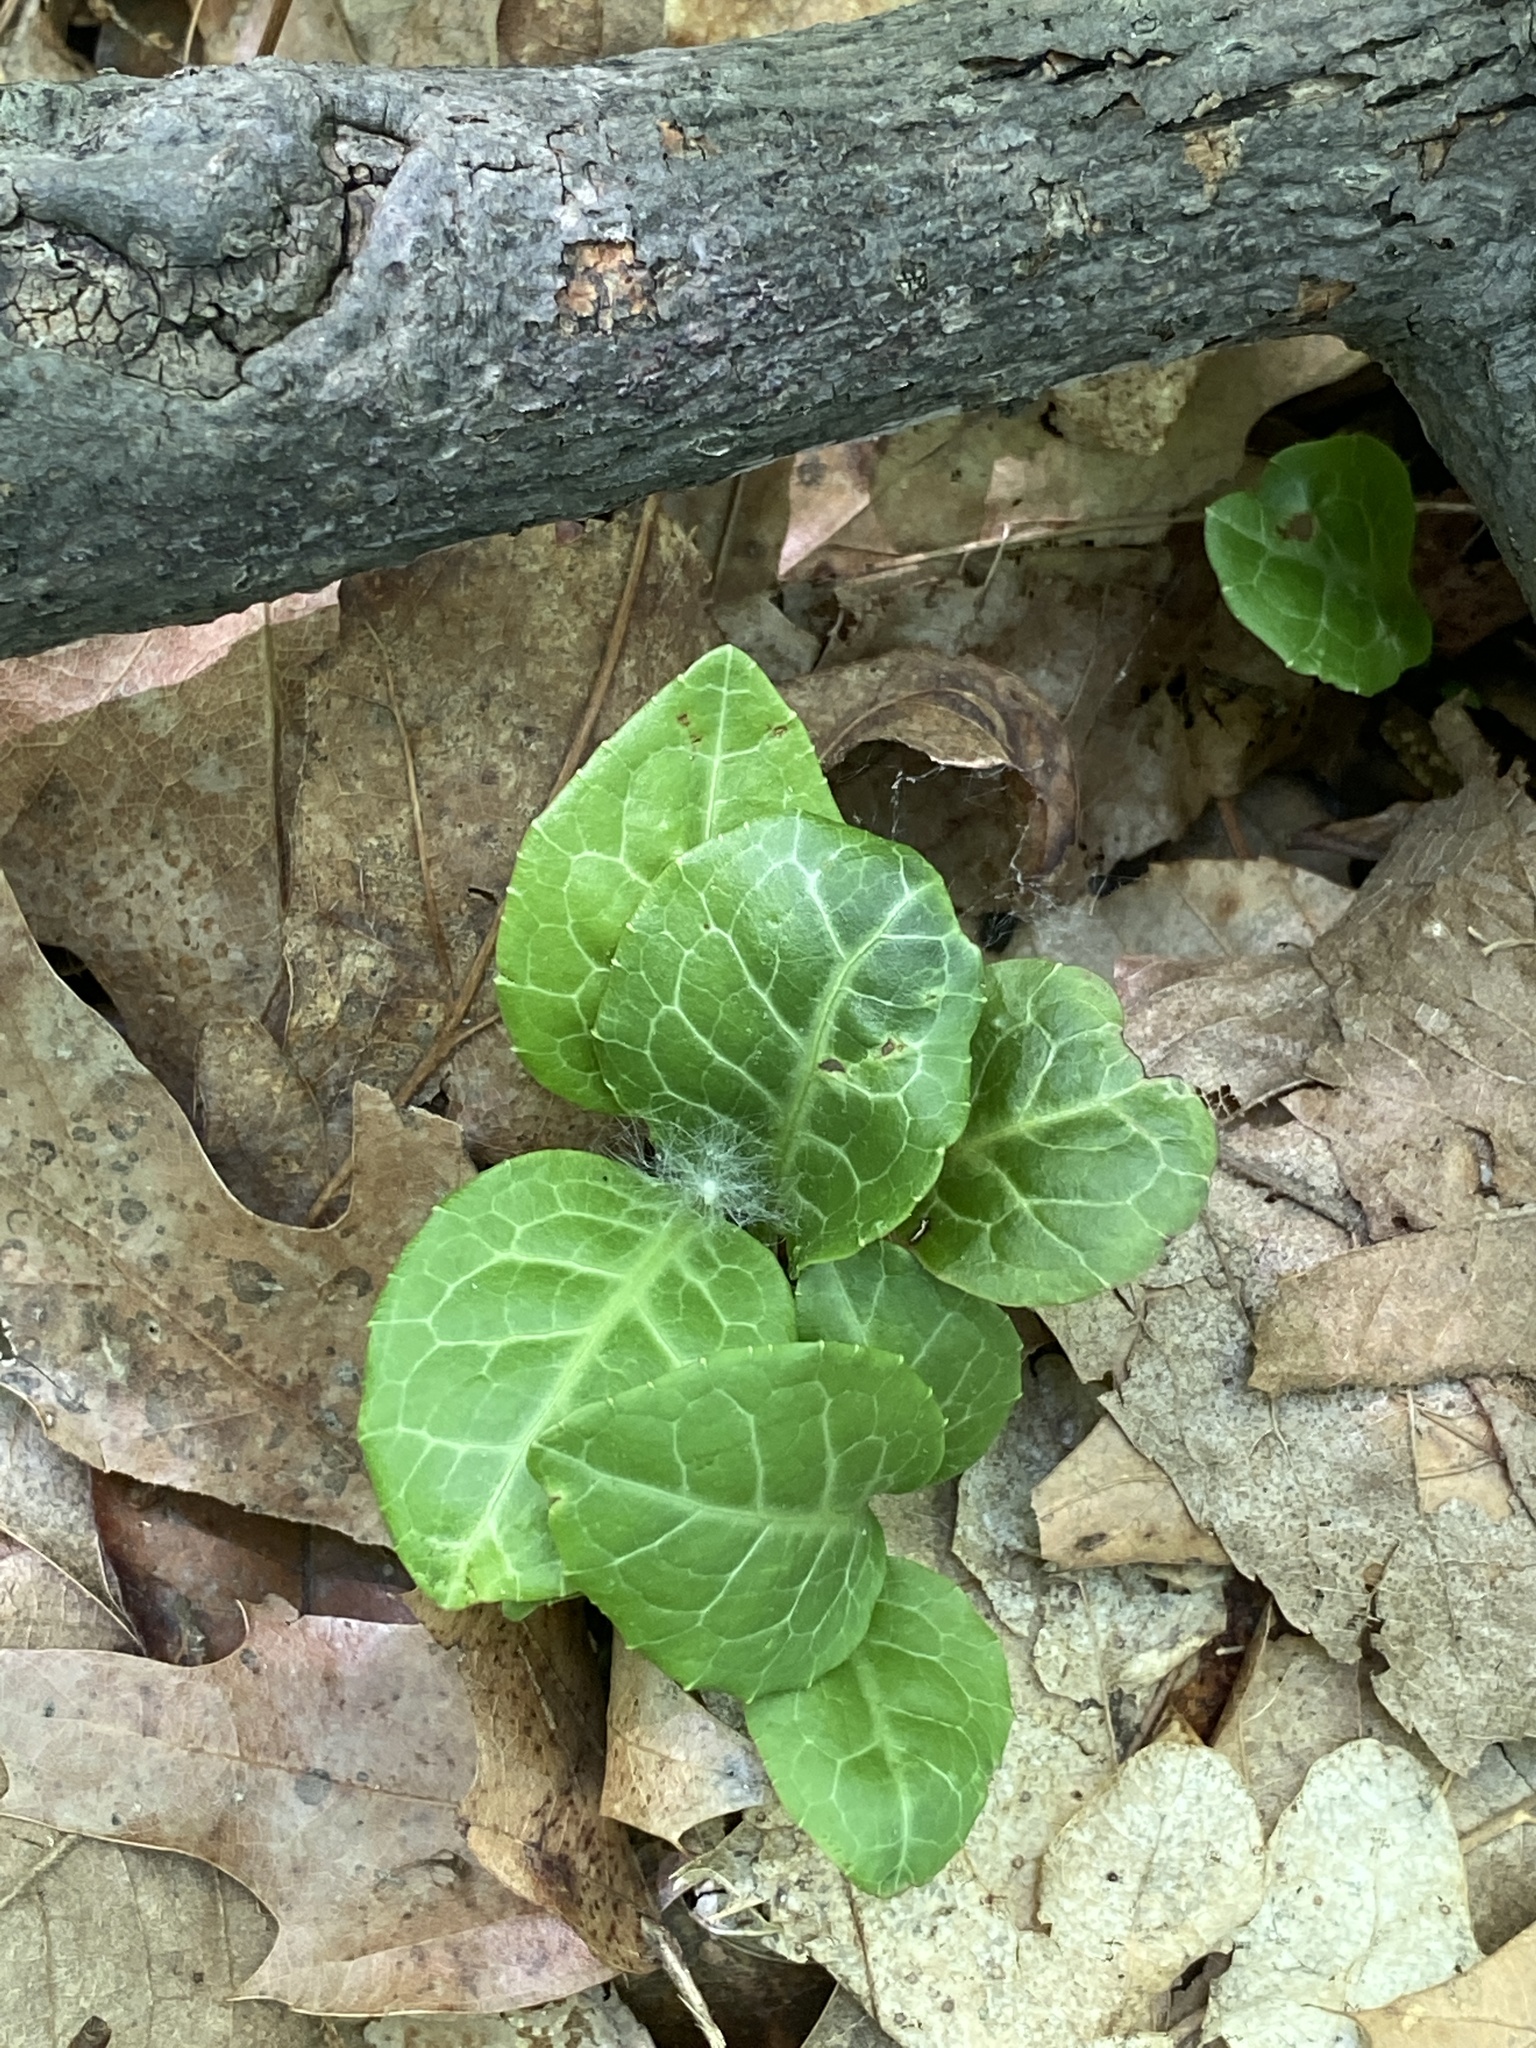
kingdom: Plantae
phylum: Tracheophyta
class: Magnoliopsida
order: Ericales
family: Ericaceae
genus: Pyrola
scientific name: Pyrola americana
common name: American wintergreen
